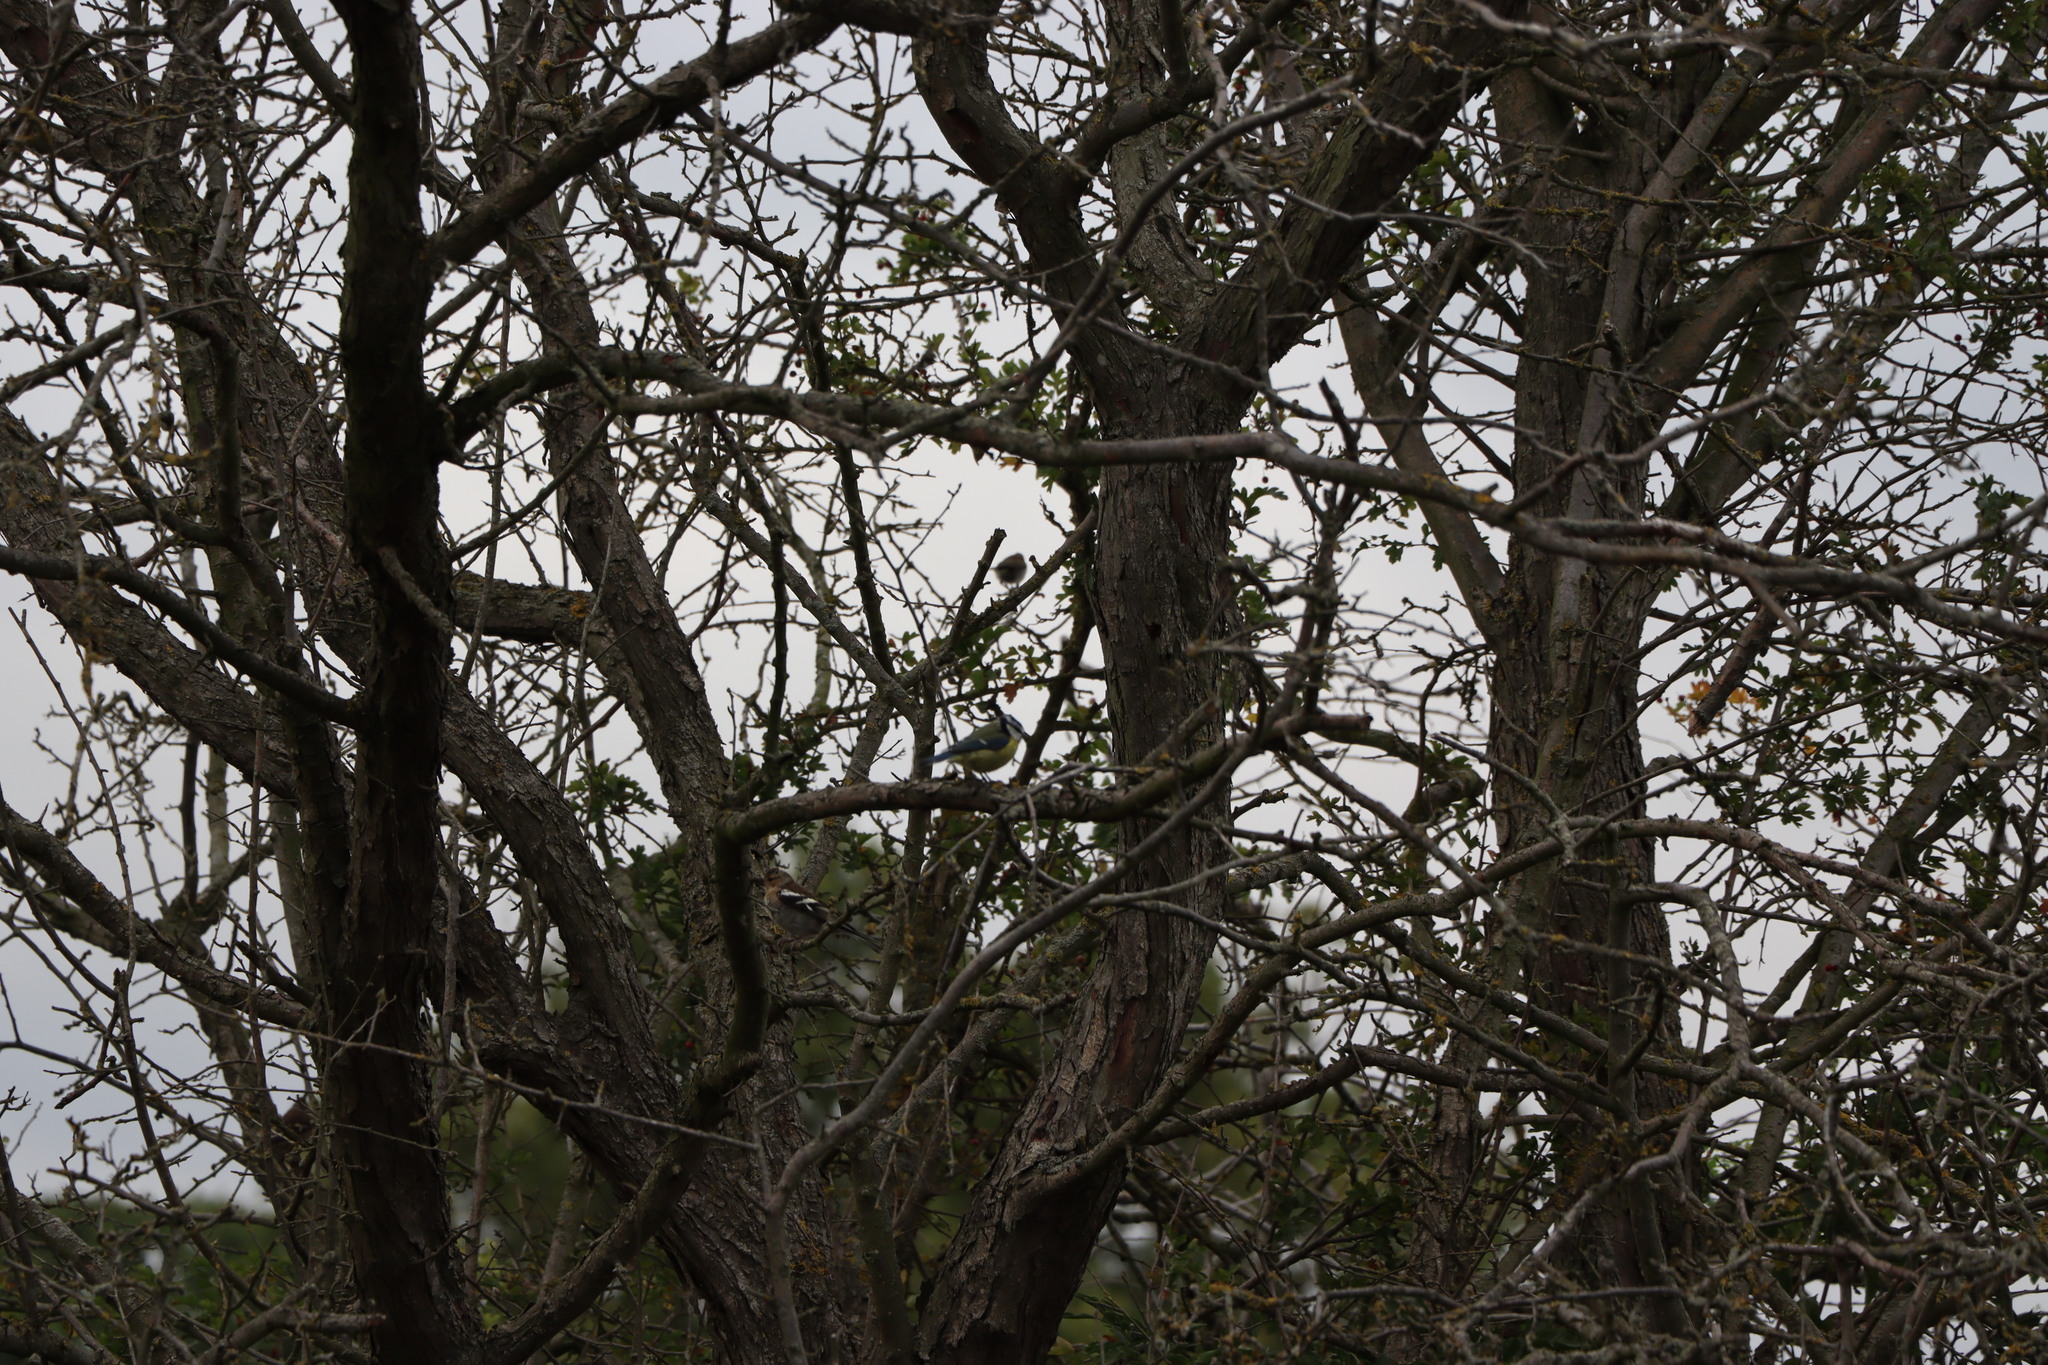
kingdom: Animalia
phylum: Chordata
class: Aves
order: Passeriformes
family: Fringillidae
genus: Fringilla
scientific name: Fringilla coelebs
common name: Common chaffinch
